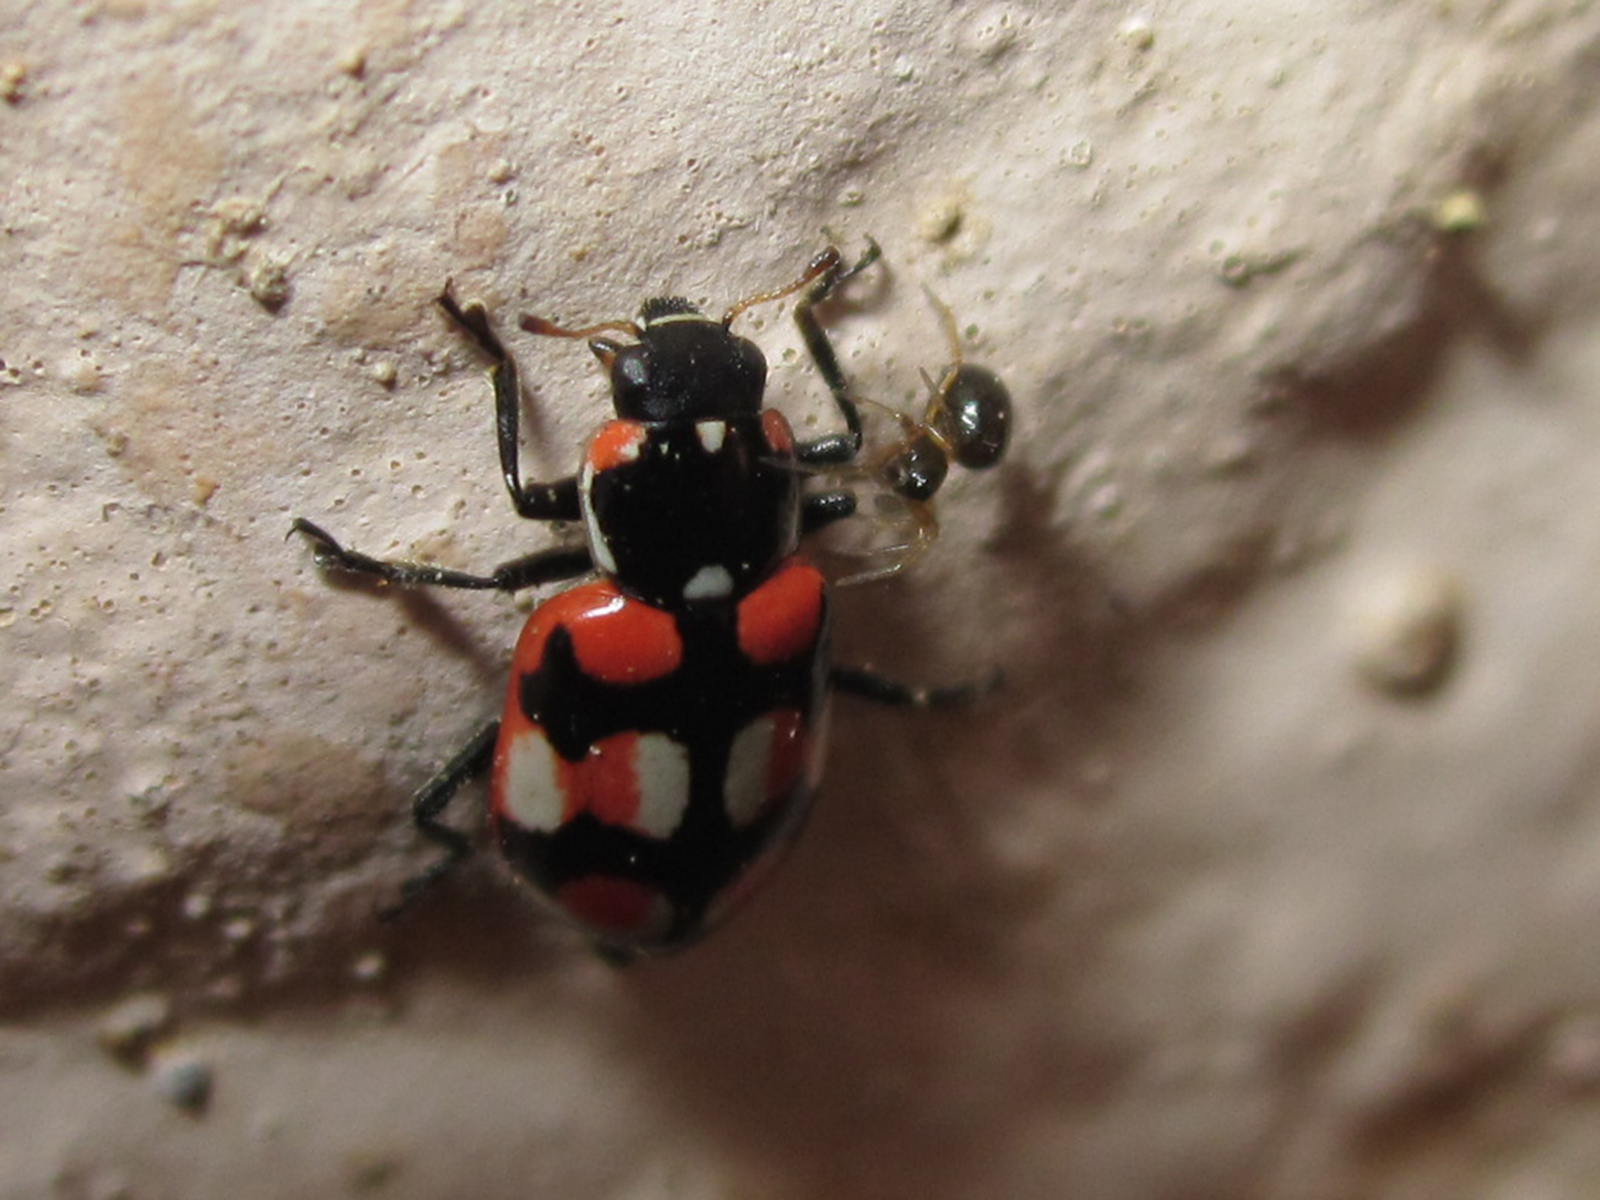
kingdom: Animalia
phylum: Arthropoda
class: Insecta
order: Coleoptera
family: Coccinellidae
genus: Eriopis
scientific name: Eriopis chilensis
